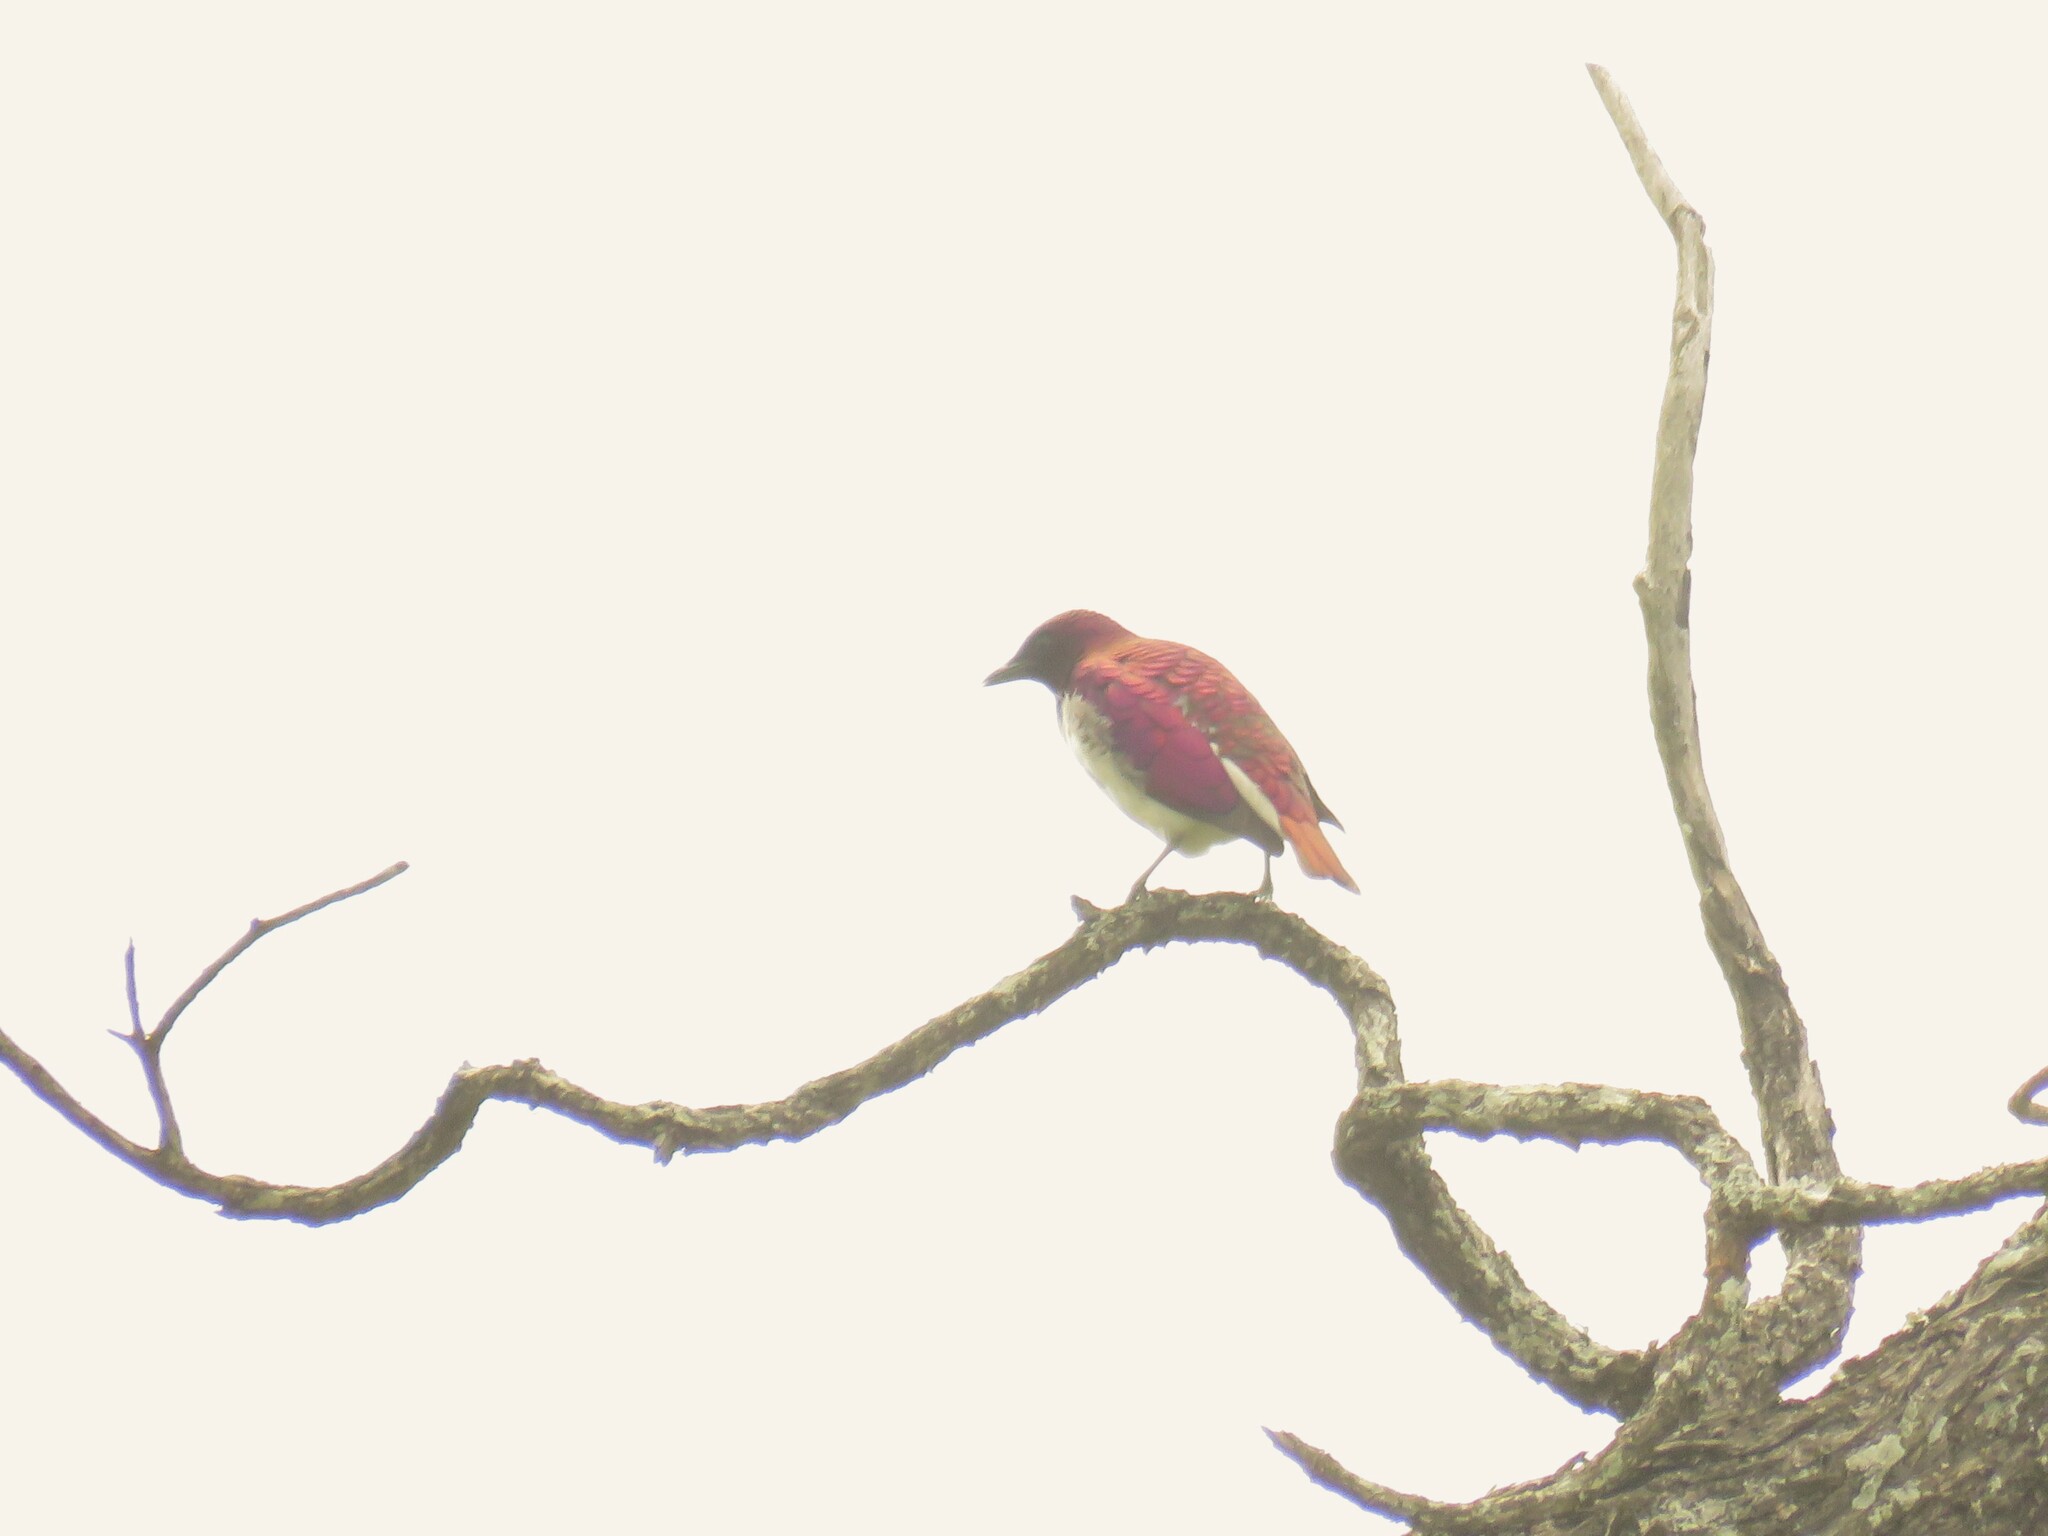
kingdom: Animalia
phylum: Chordata
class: Aves
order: Passeriformes
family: Sturnidae
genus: Cinnyricinclus
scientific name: Cinnyricinclus leucogaster
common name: Violet-backed starling
